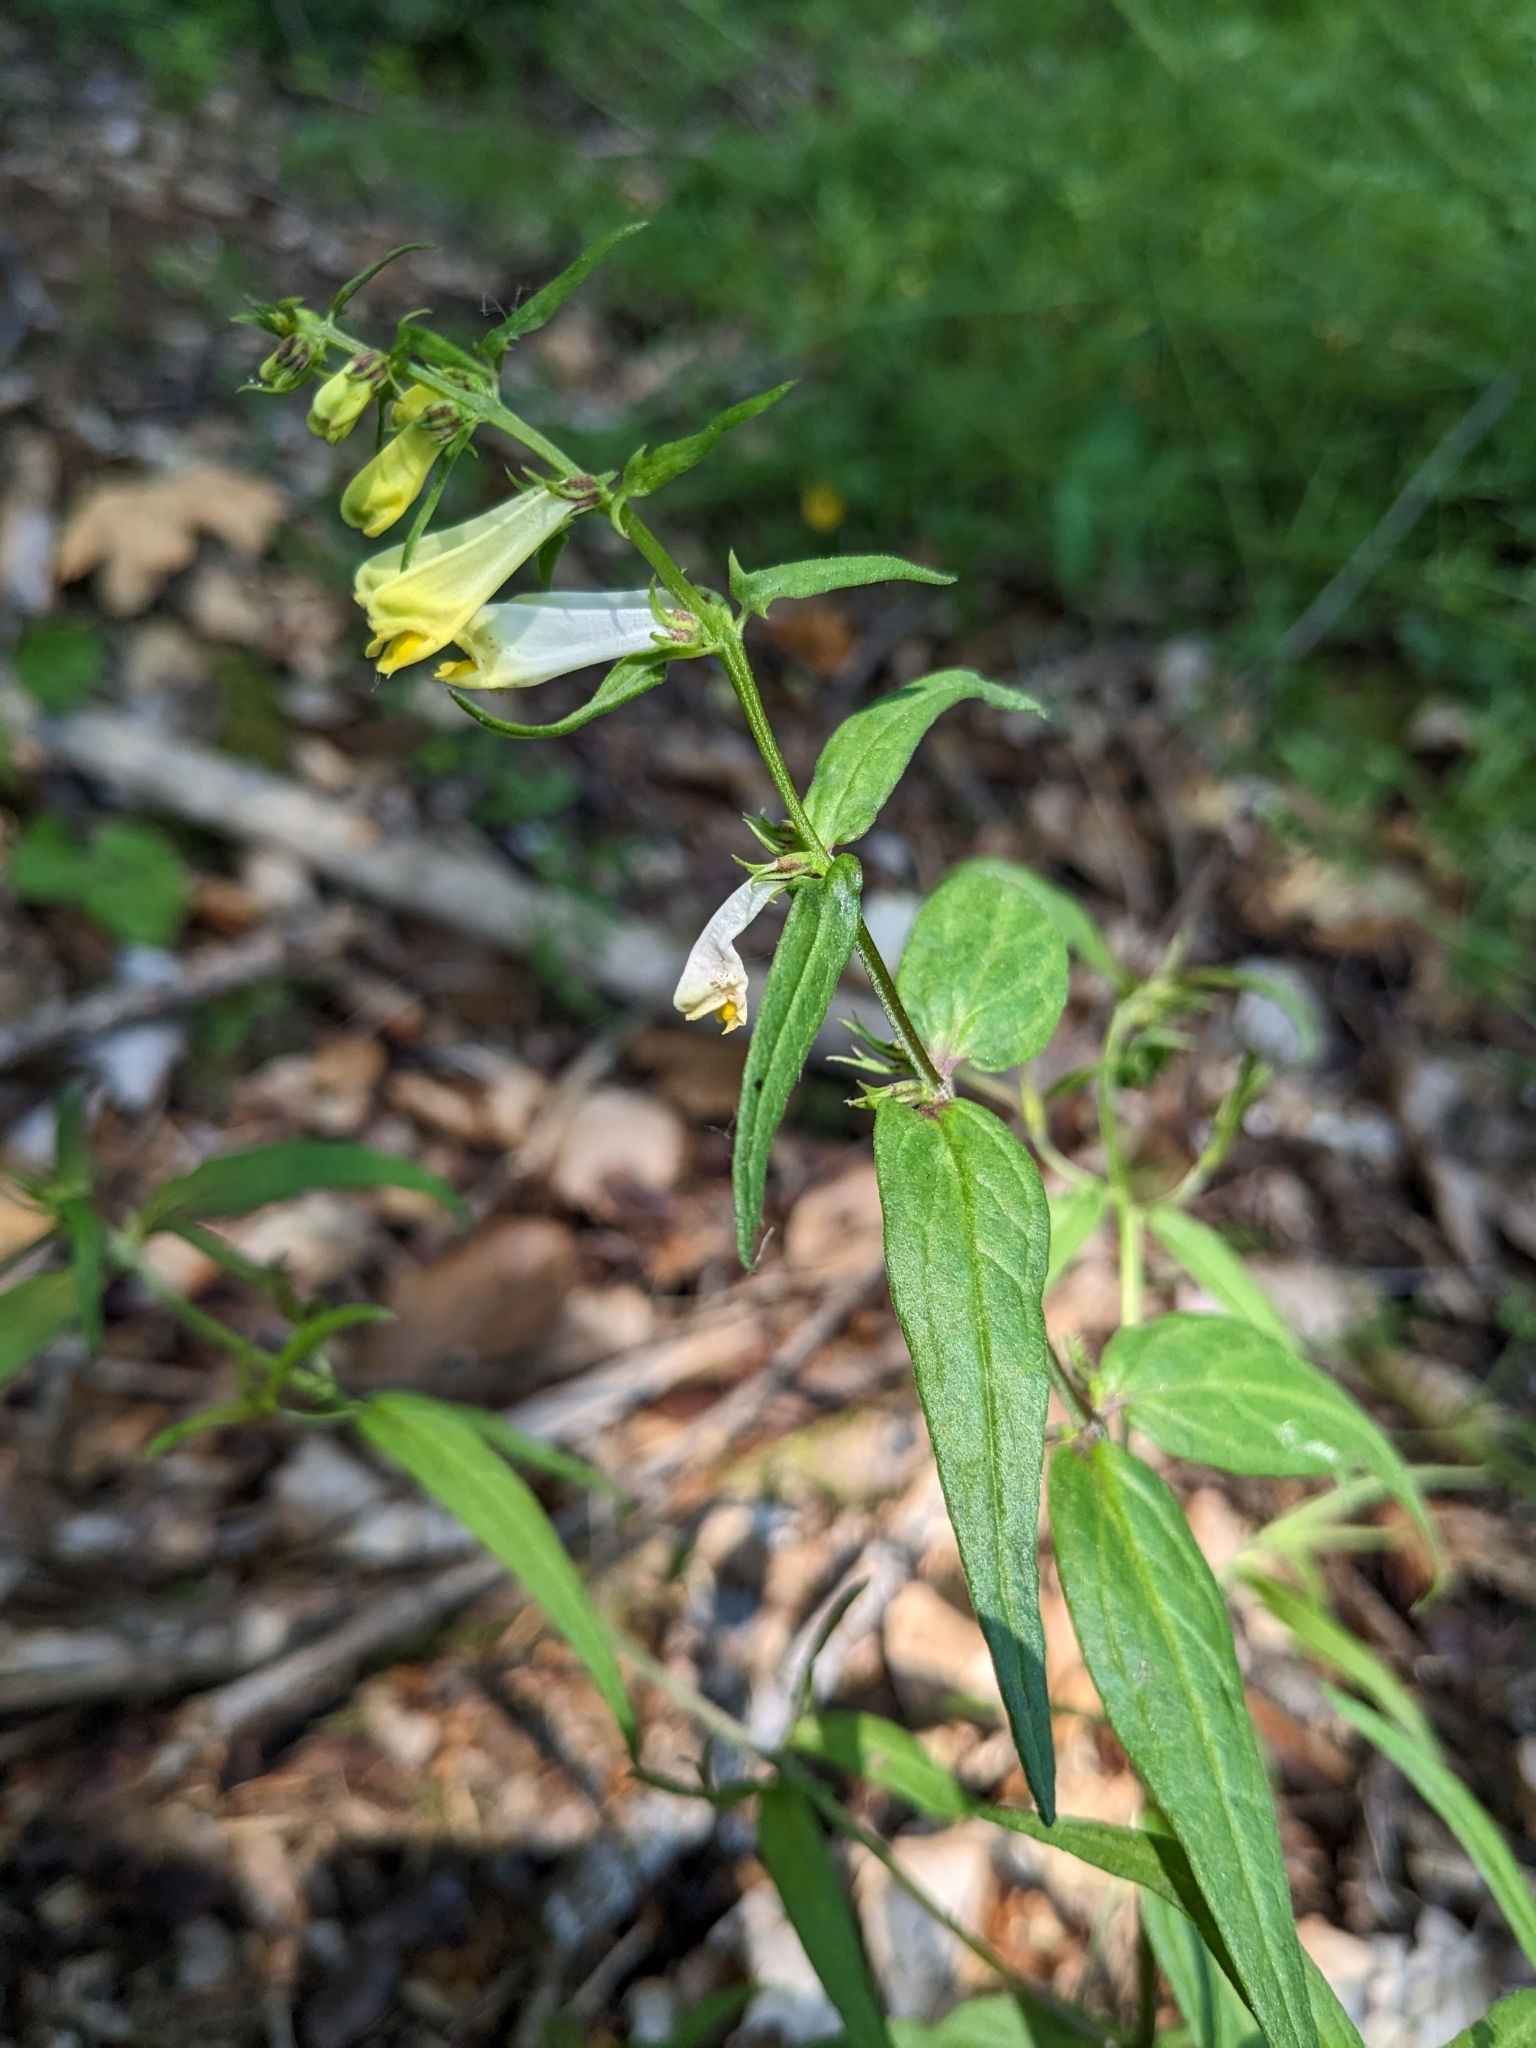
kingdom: Plantae
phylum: Tracheophyta
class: Magnoliopsida
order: Lamiales
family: Orobanchaceae
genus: Melampyrum
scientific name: Melampyrum pratense
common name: Common cow-wheat
